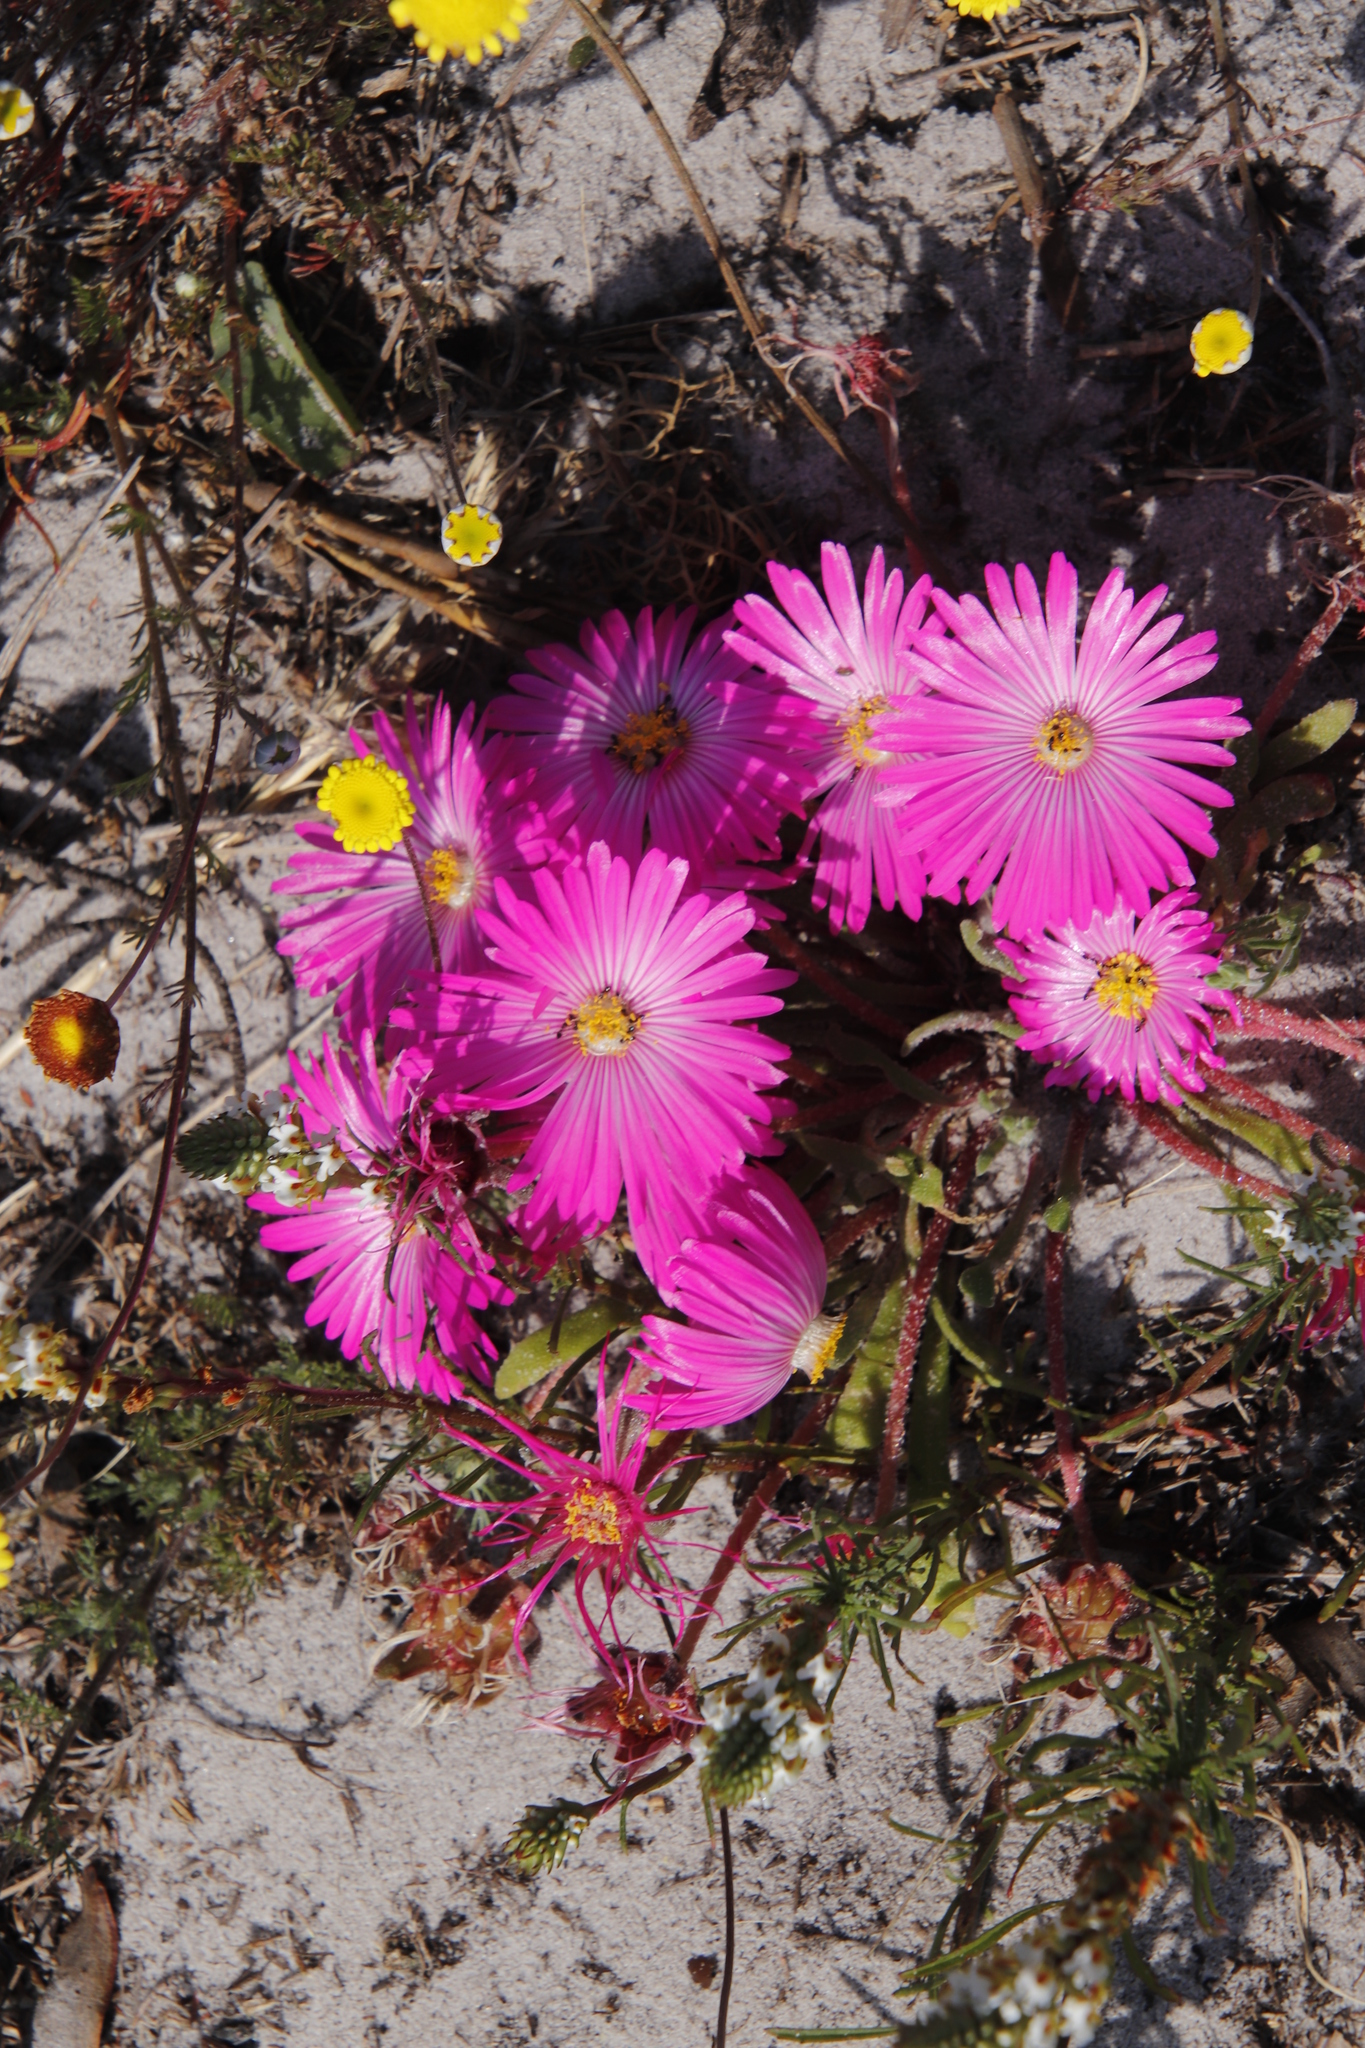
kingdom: Plantae
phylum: Tracheophyta
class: Magnoliopsida
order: Caryophyllales
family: Aizoaceae
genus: Cleretum
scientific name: Cleretum bellidiforme
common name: Livingstone daisy
